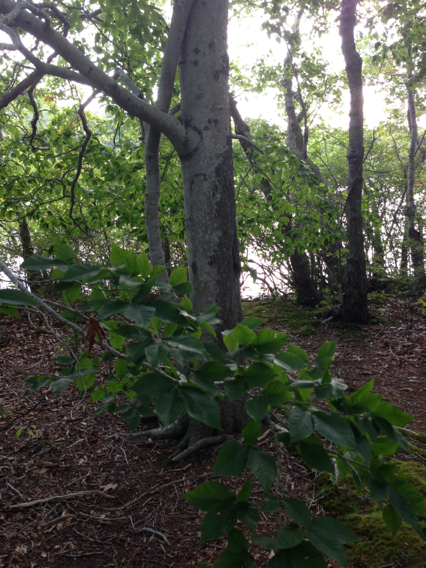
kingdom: Plantae
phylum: Tracheophyta
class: Magnoliopsida
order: Fagales
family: Fagaceae
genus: Fagus
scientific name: Fagus grandifolia
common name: American beech
